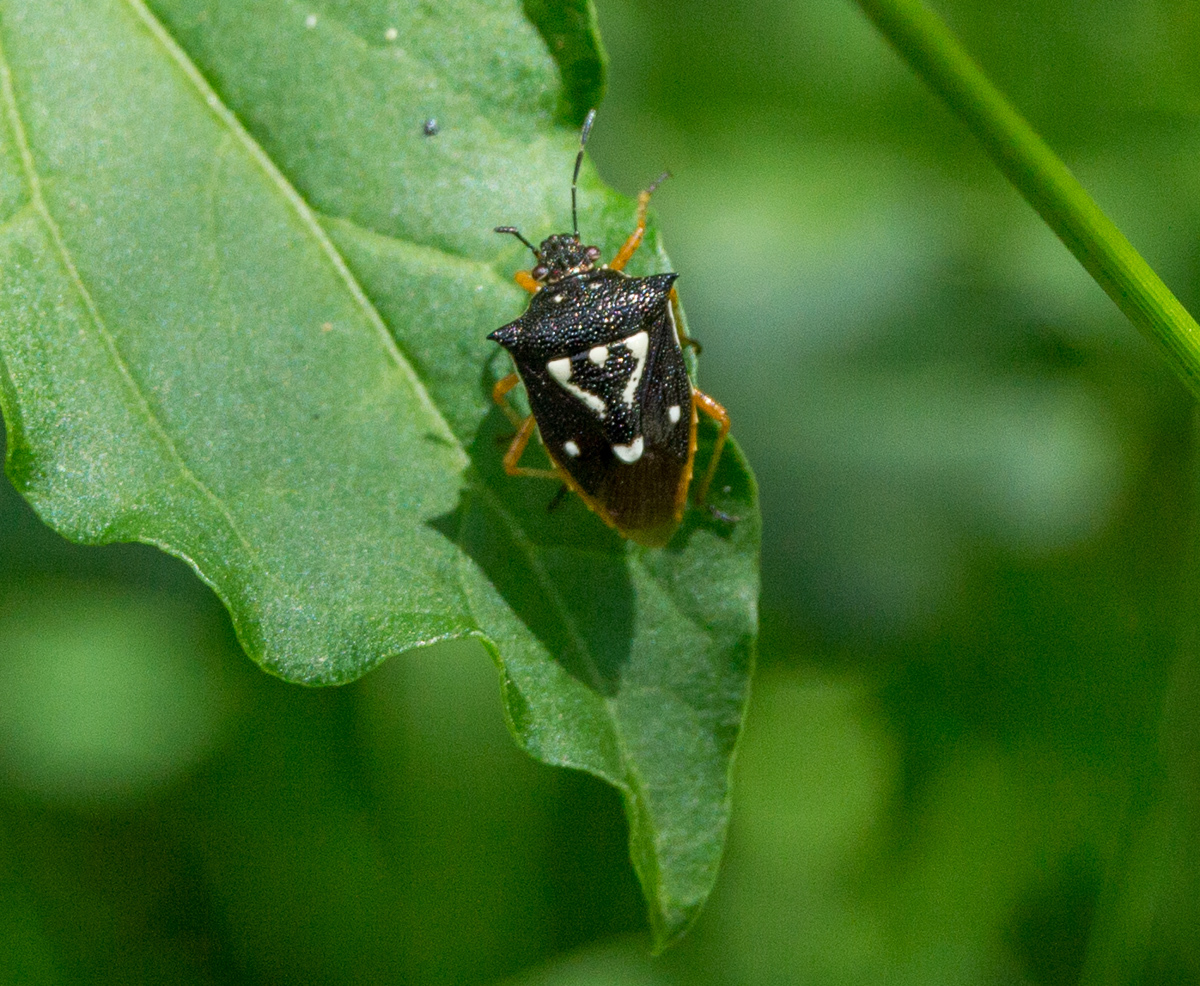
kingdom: Animalia
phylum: Arthropoda
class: Insecta
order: Hemiptera
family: Pentatomidae
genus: Mormidea
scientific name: Mormidea v-luteum
